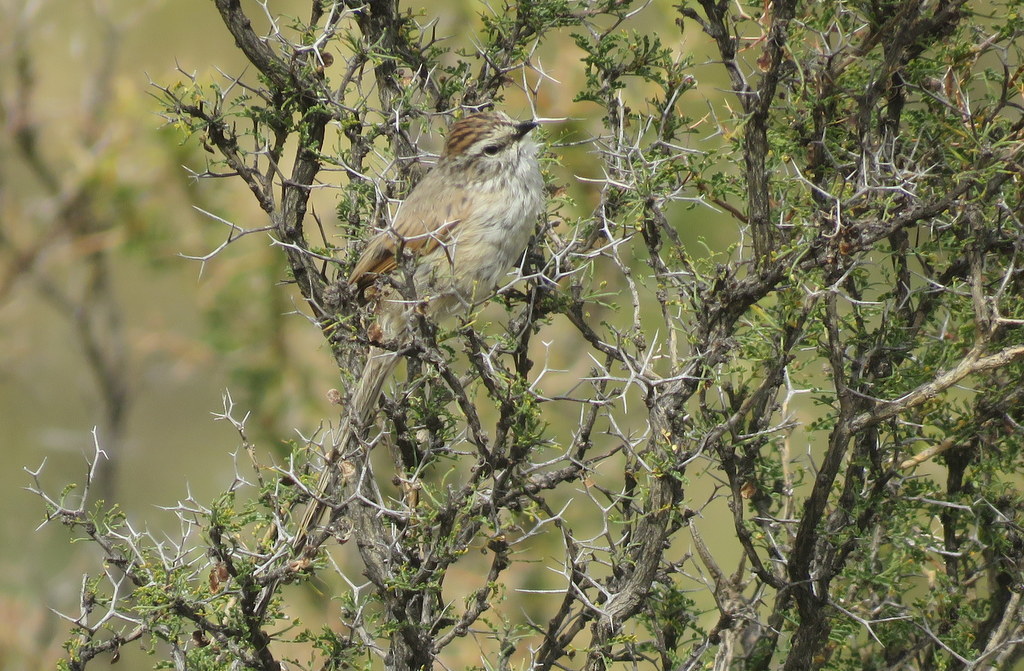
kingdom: Animalia
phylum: Chordata
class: Aves
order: Passeriformes
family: Furnariidae
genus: Leptasthenura
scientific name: Leptasthenura aegithaloides
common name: Plain-mantled tit-spinetail
